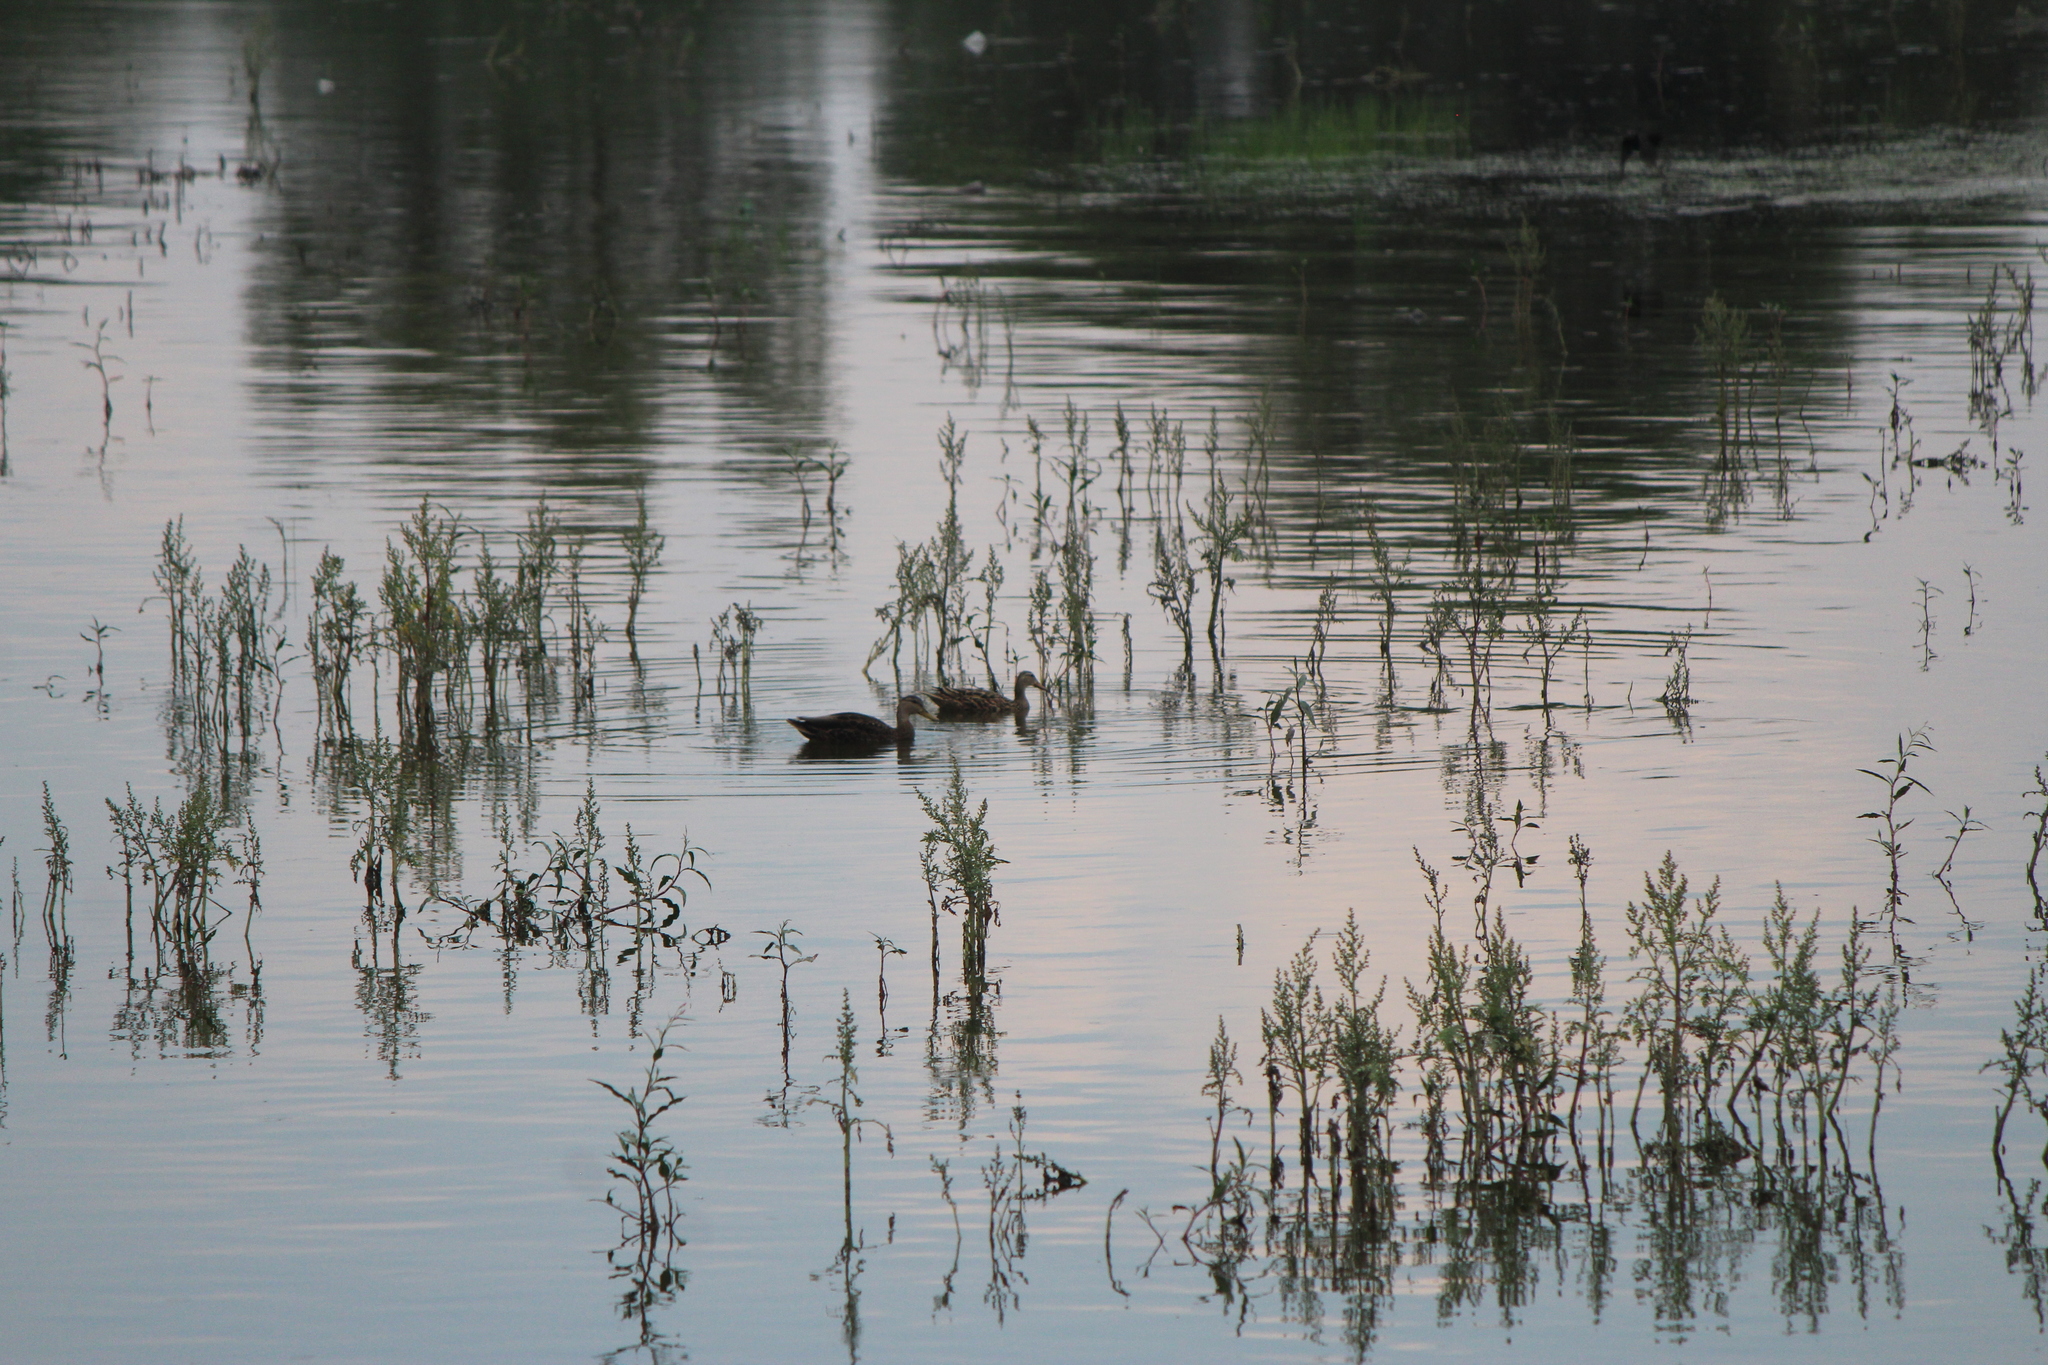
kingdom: Animalia
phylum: Chordata
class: Aves
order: Anseriformes
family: Anatidae
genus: Anas
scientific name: Anas diazi
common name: Mexican duck
